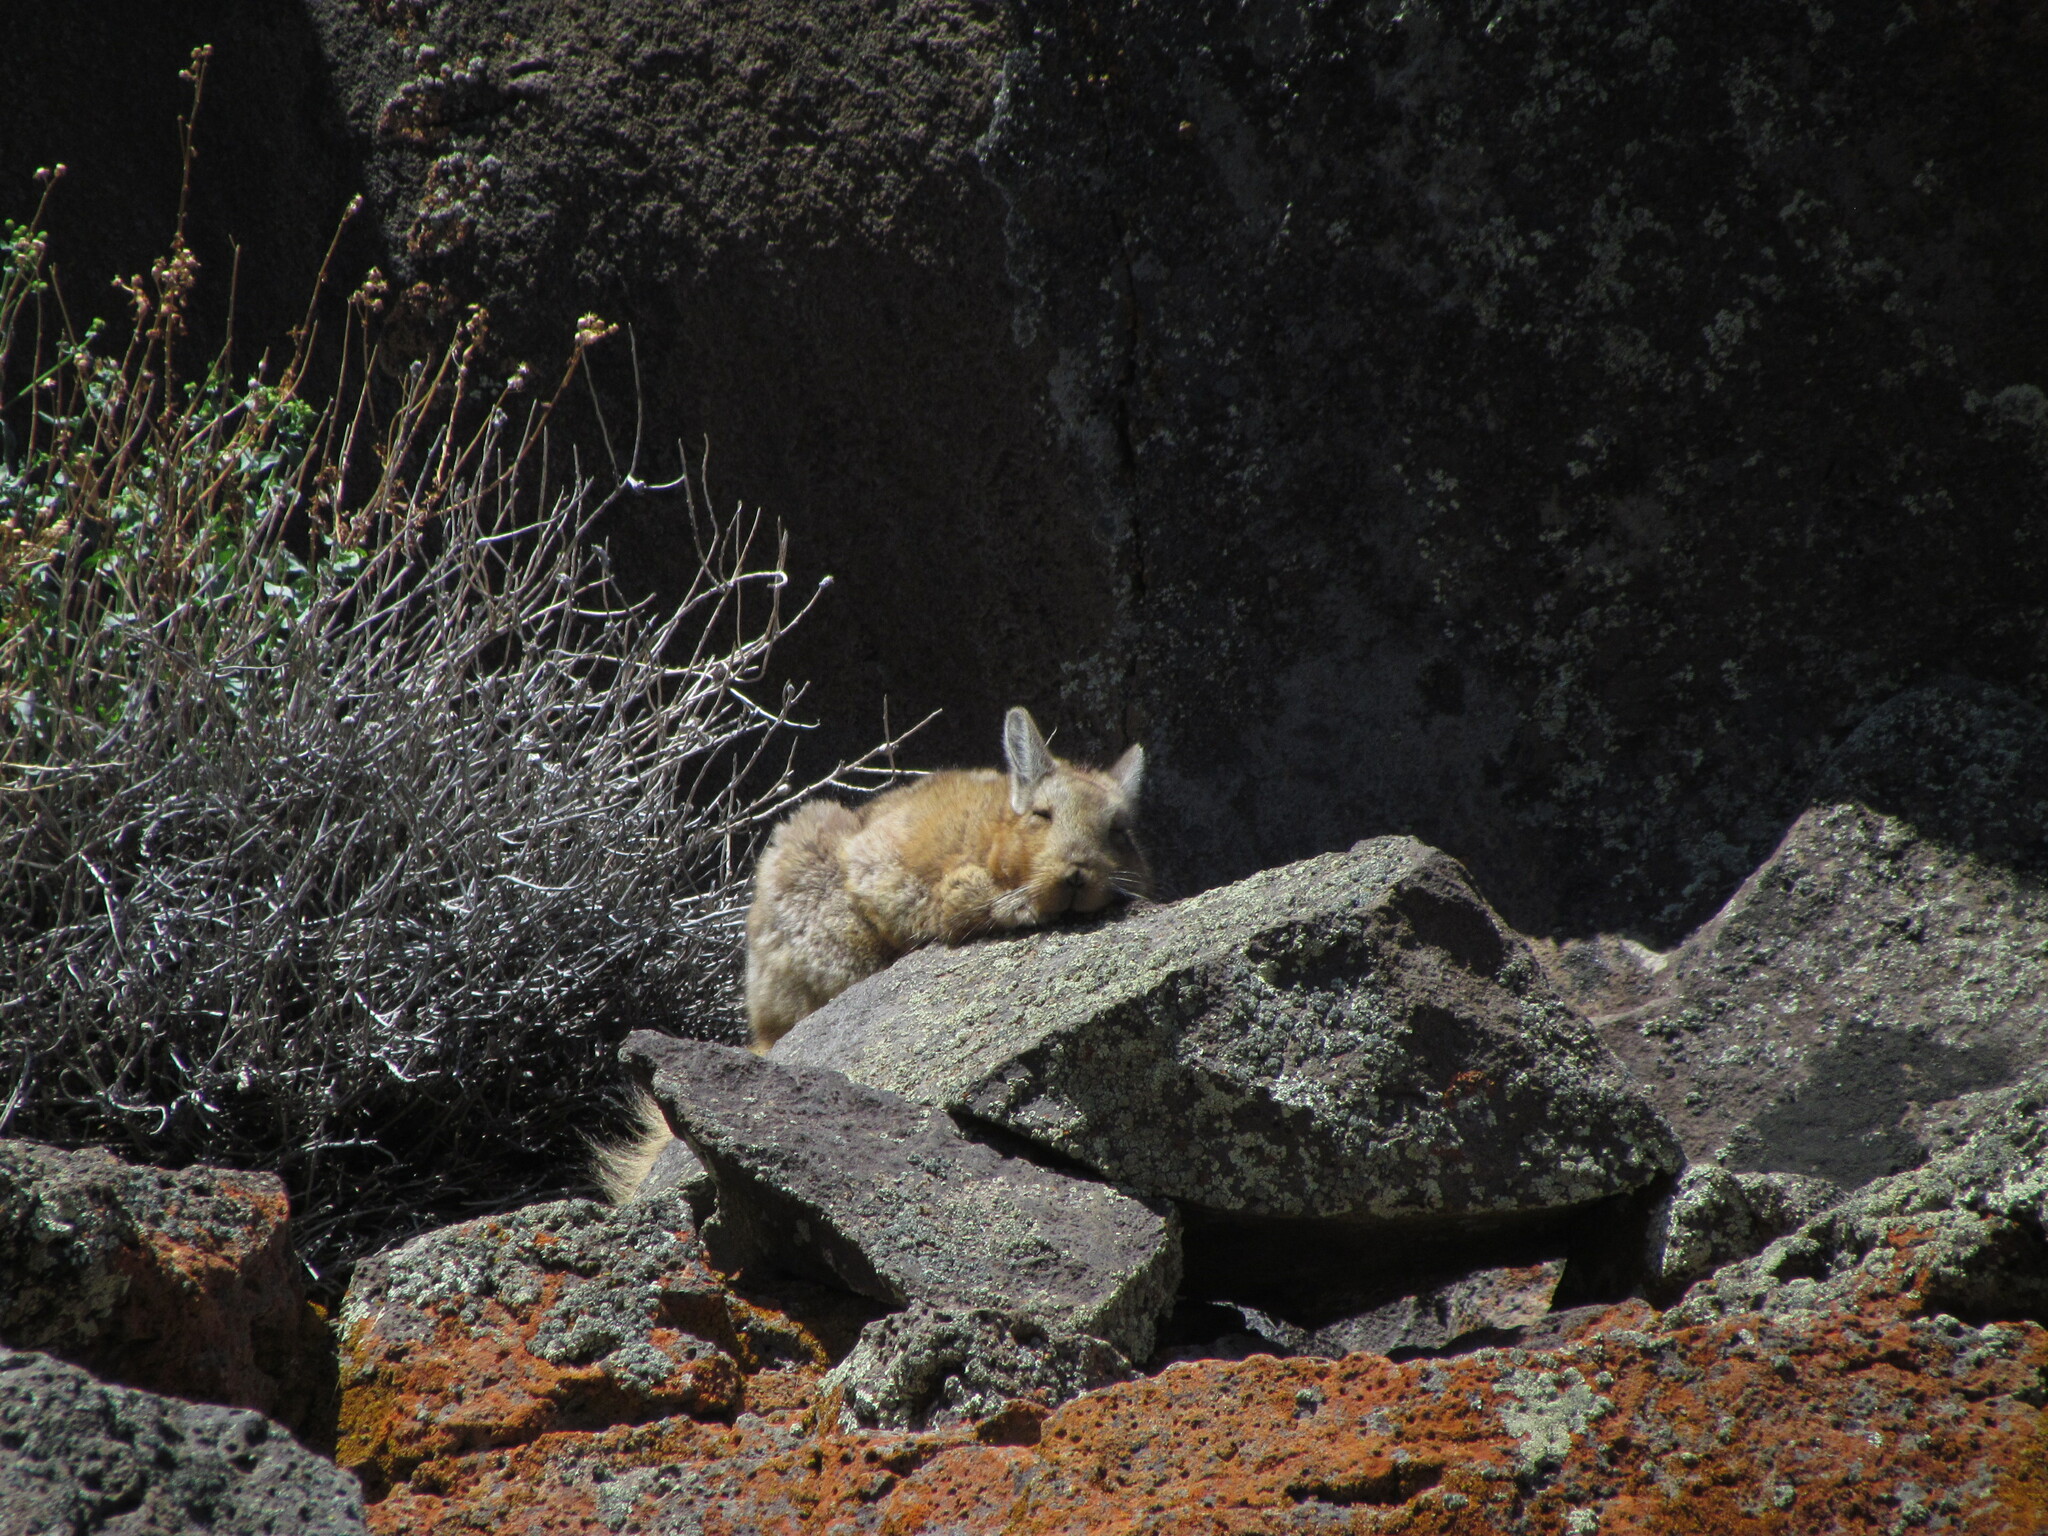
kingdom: Animalia
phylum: Chordata
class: Mammalia
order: Rodentia
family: Chinchillidae
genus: Lagidium
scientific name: Lagidium wolffsohni
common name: Wolffsohn's viscacha
